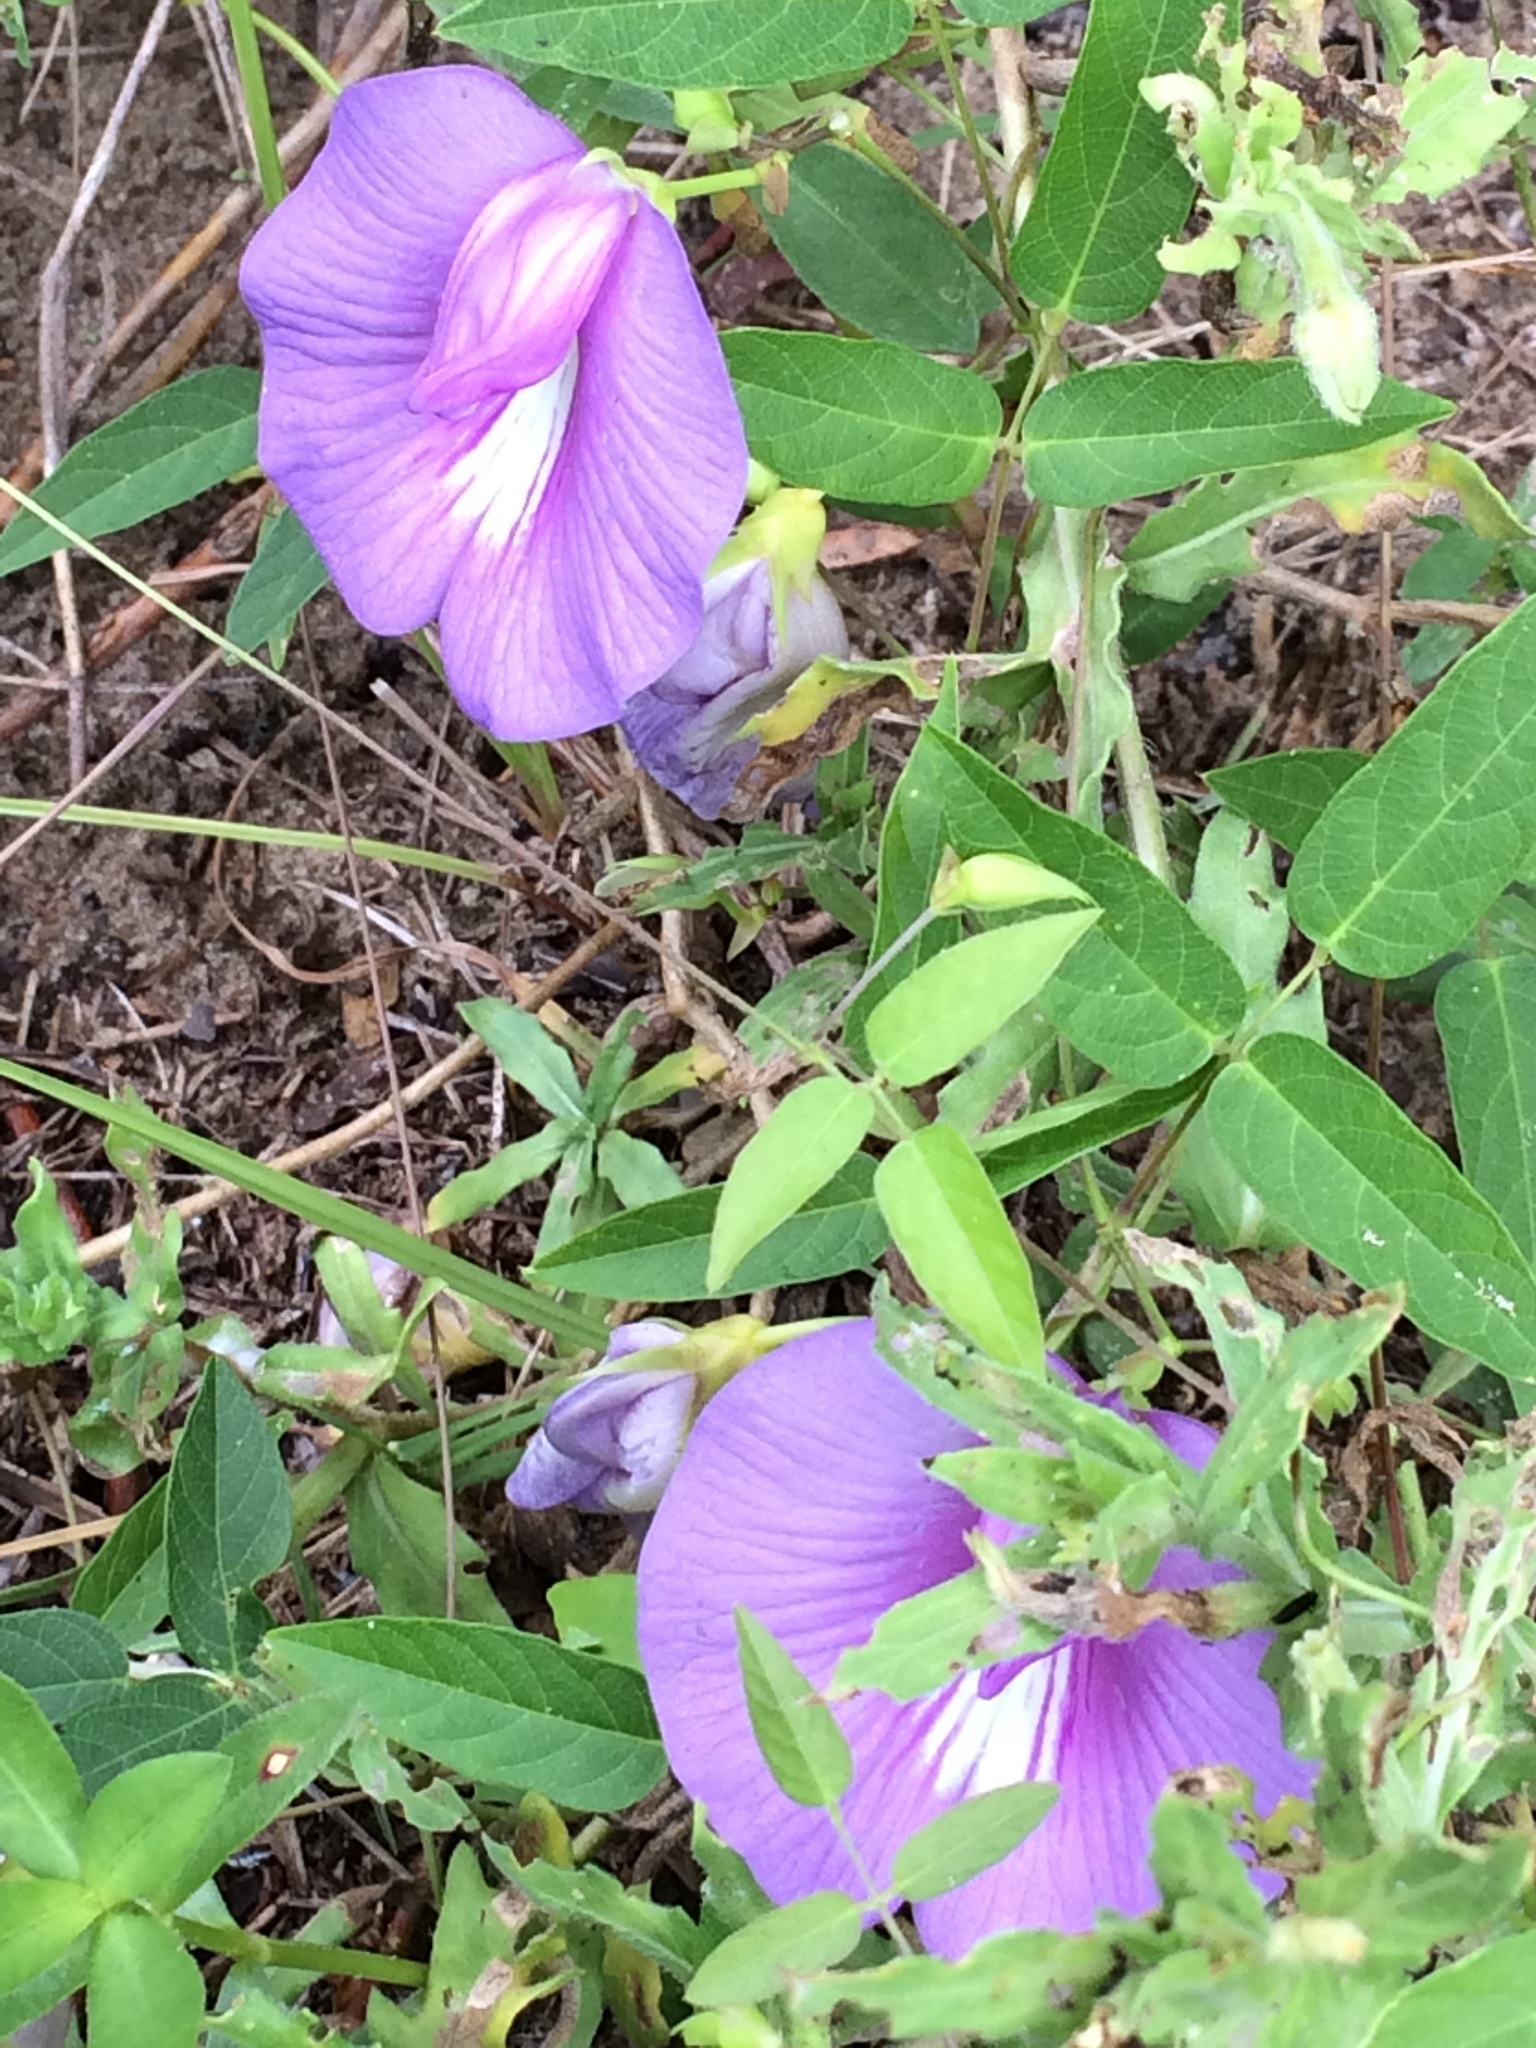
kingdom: Plantae
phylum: Tracheophyta
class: Magnoliopsida
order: Fabales
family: Fabaceae
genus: Centrosema
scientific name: Centrosema virginianum
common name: Butterfly-pea
